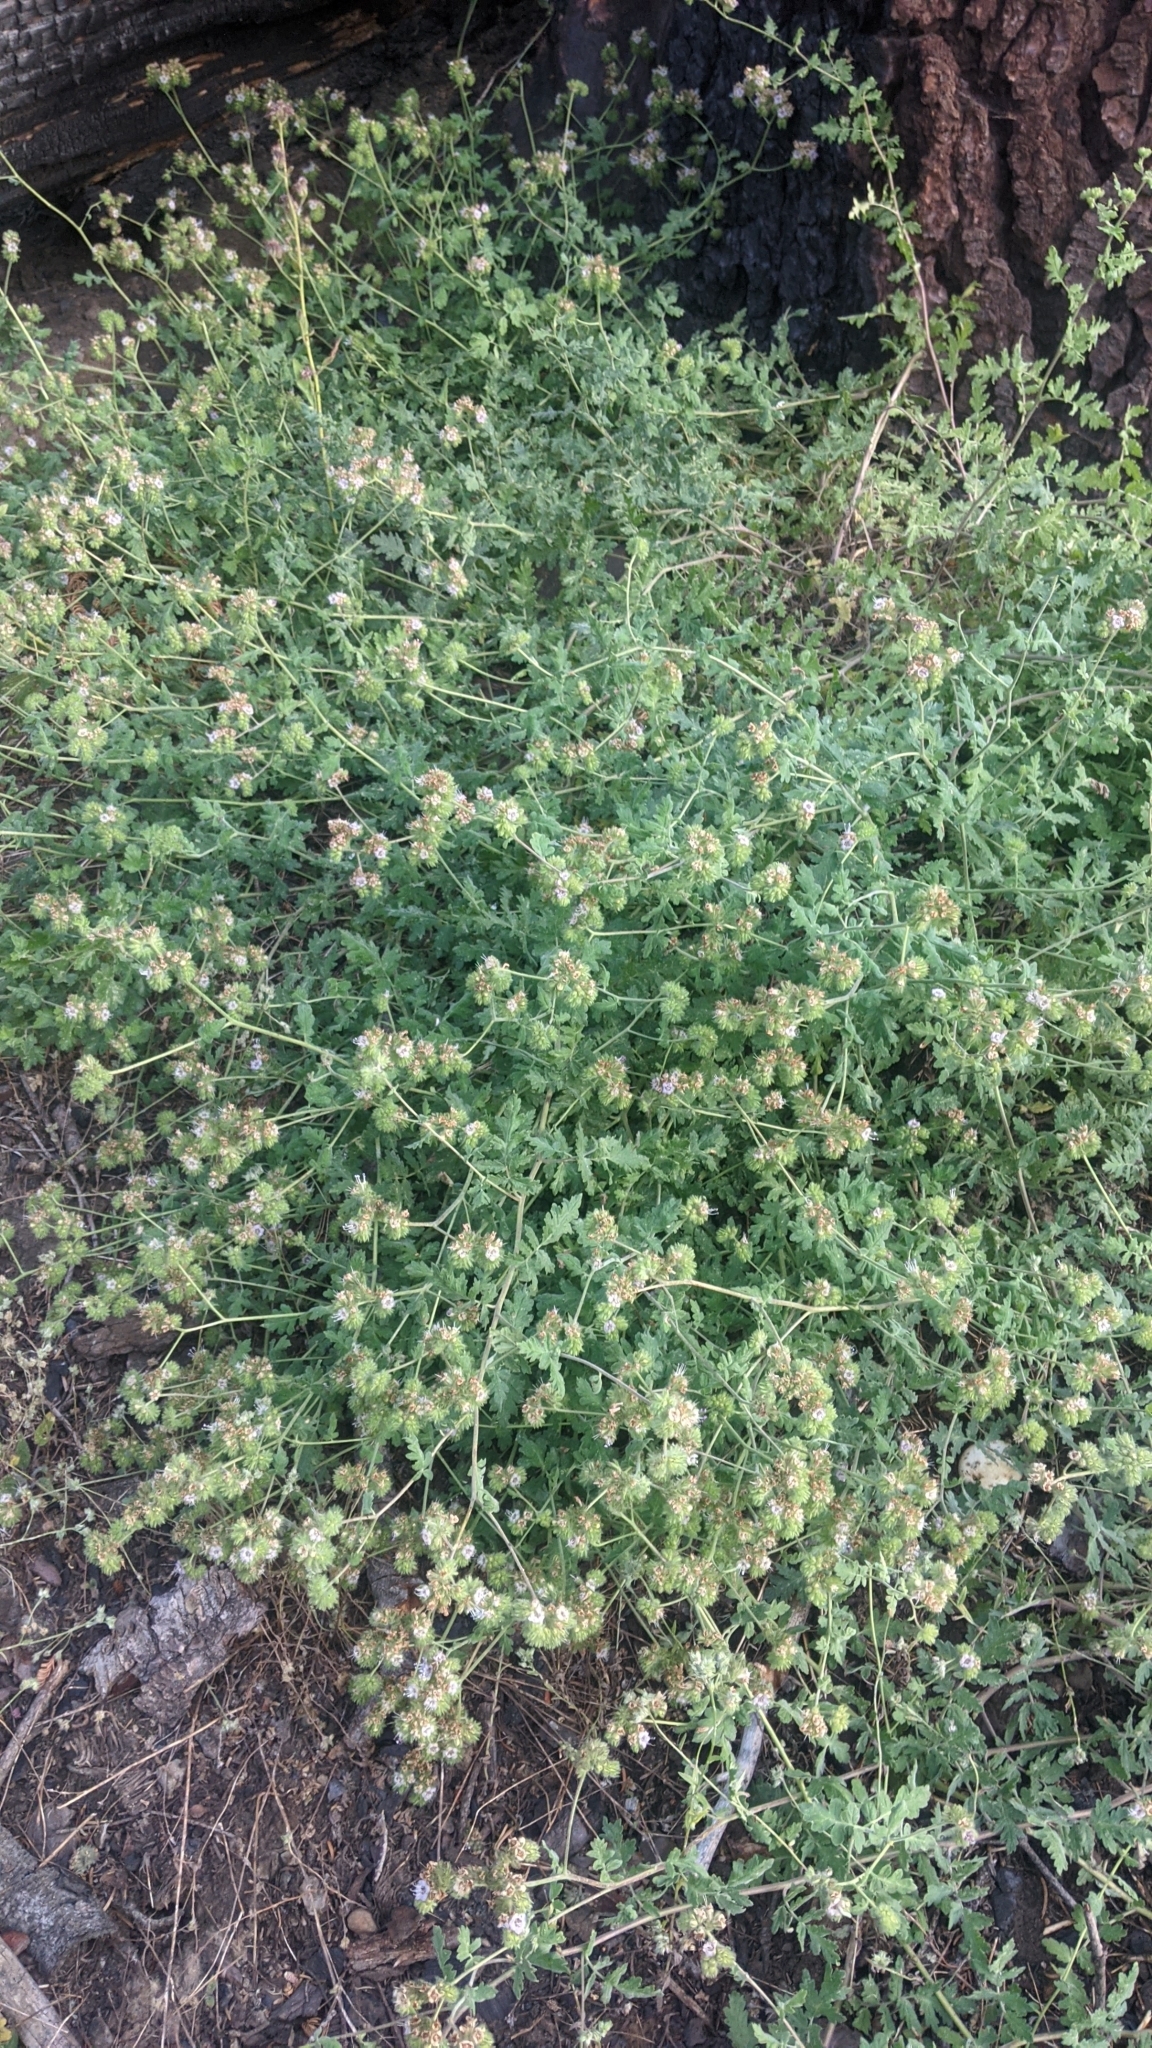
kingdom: Plantae
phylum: Tracheophyta
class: Magnoliopsida
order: Boraginales
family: Hydrophyllaceae
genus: Phacelia
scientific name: Phacelia ramosissima
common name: Branching phacelia
